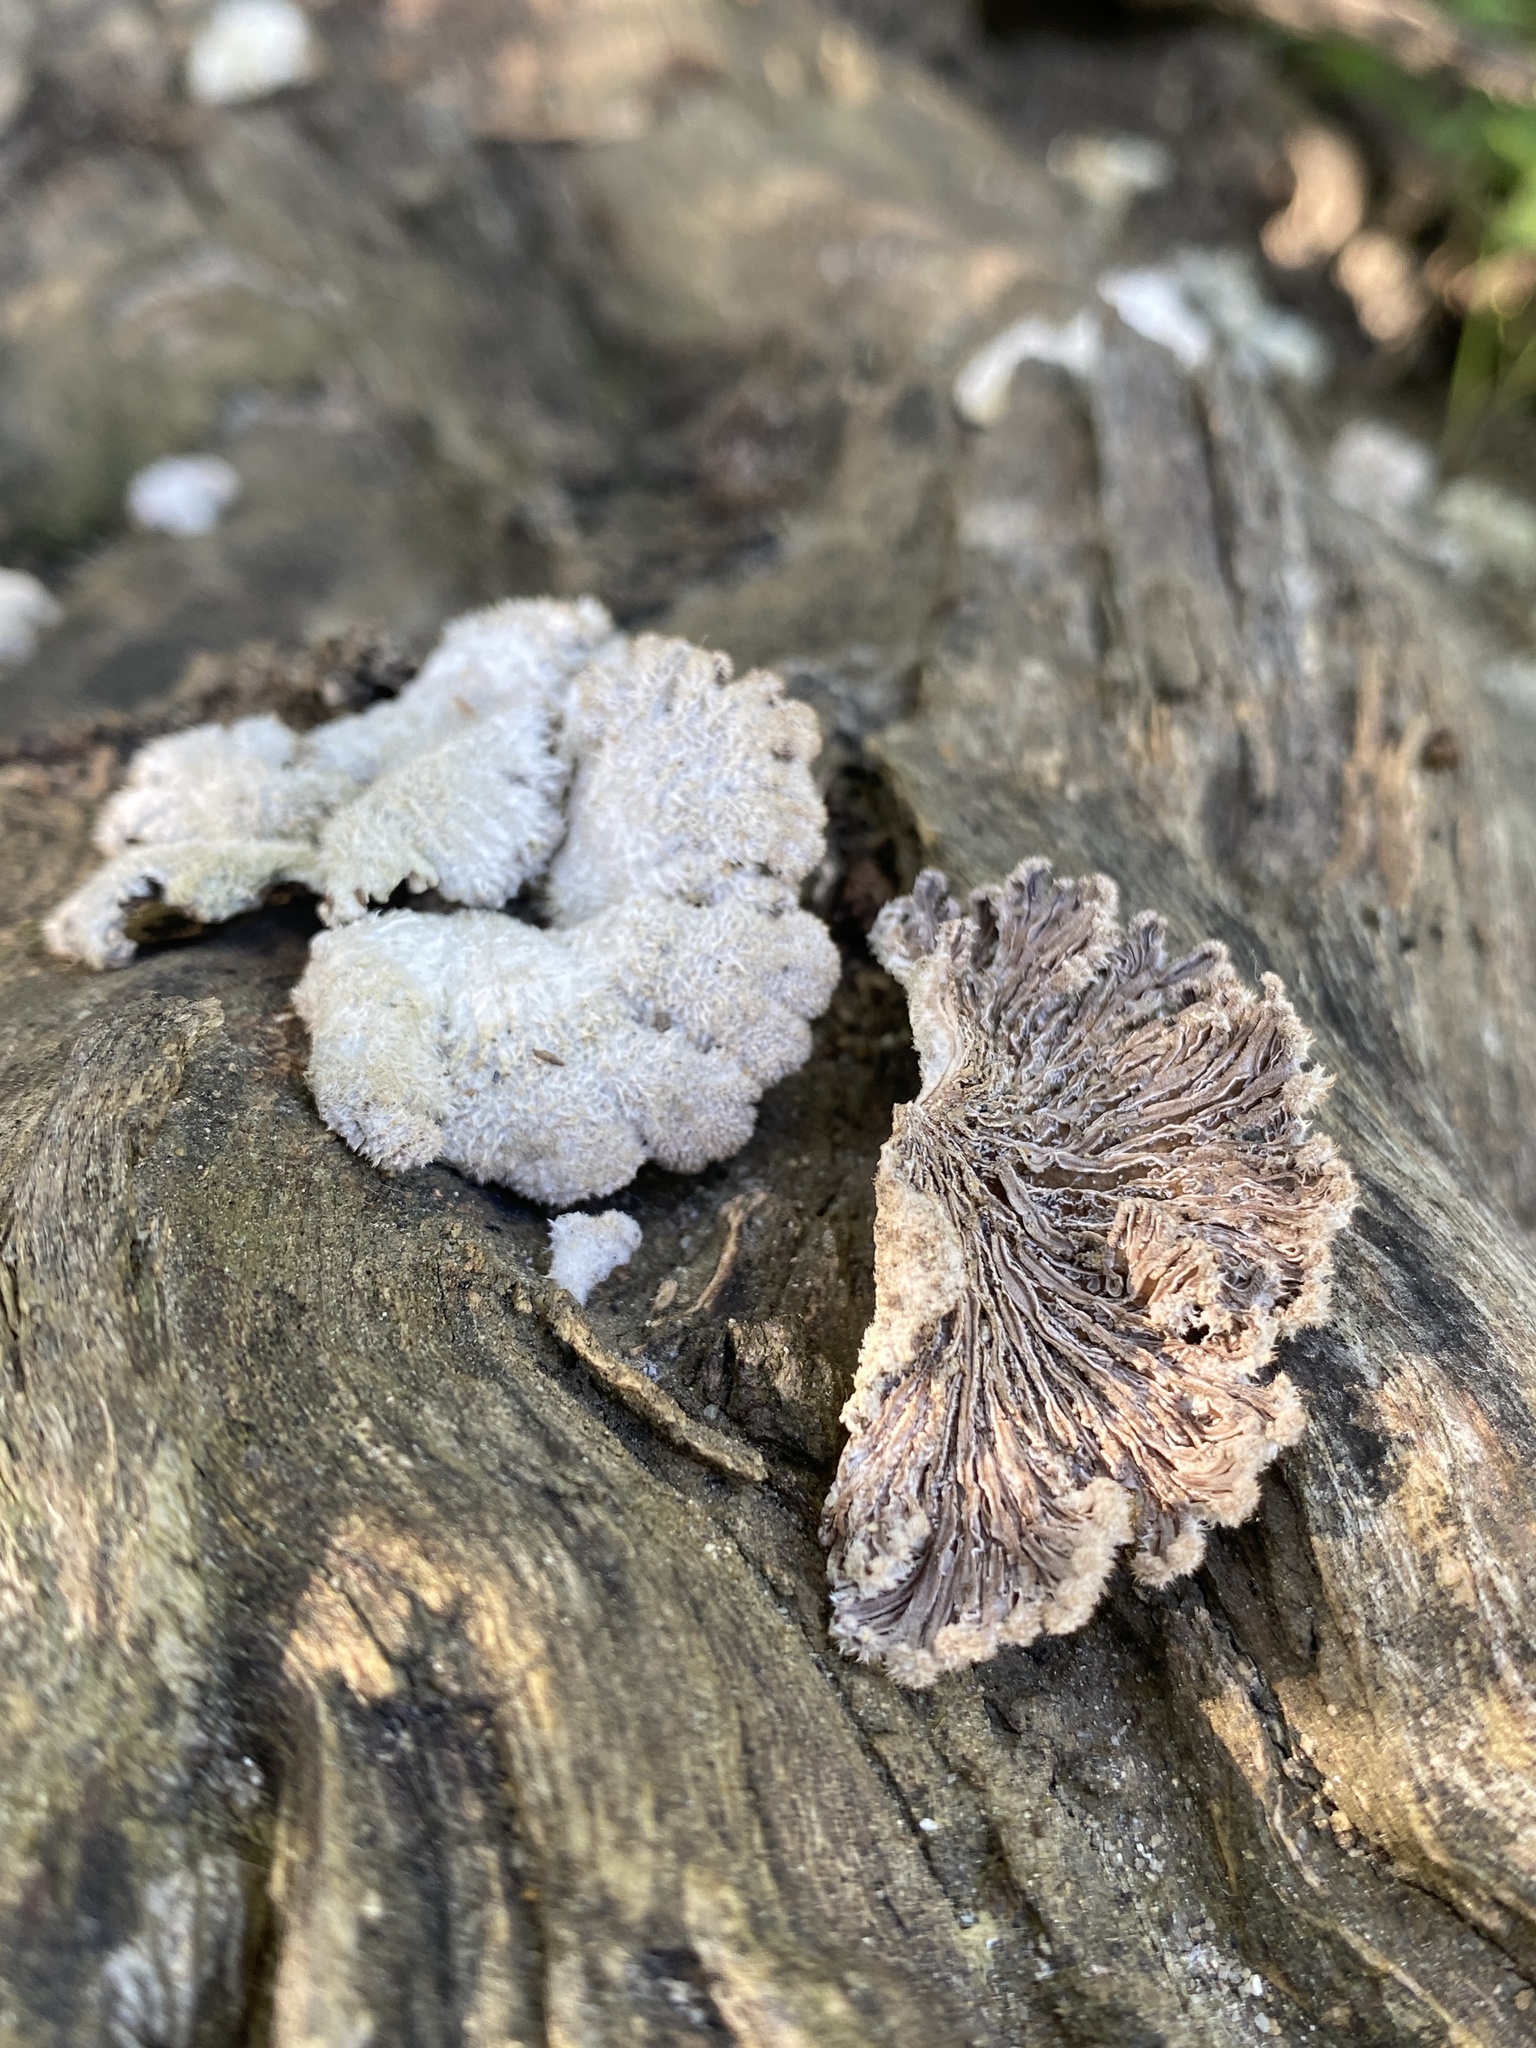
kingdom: Fungi
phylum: Basidiomycota
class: Agaricomycetes
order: Agaricales
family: Schizophyllaceae
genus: Schizophyllum
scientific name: Schizophyllum commune
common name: Common porecrust
